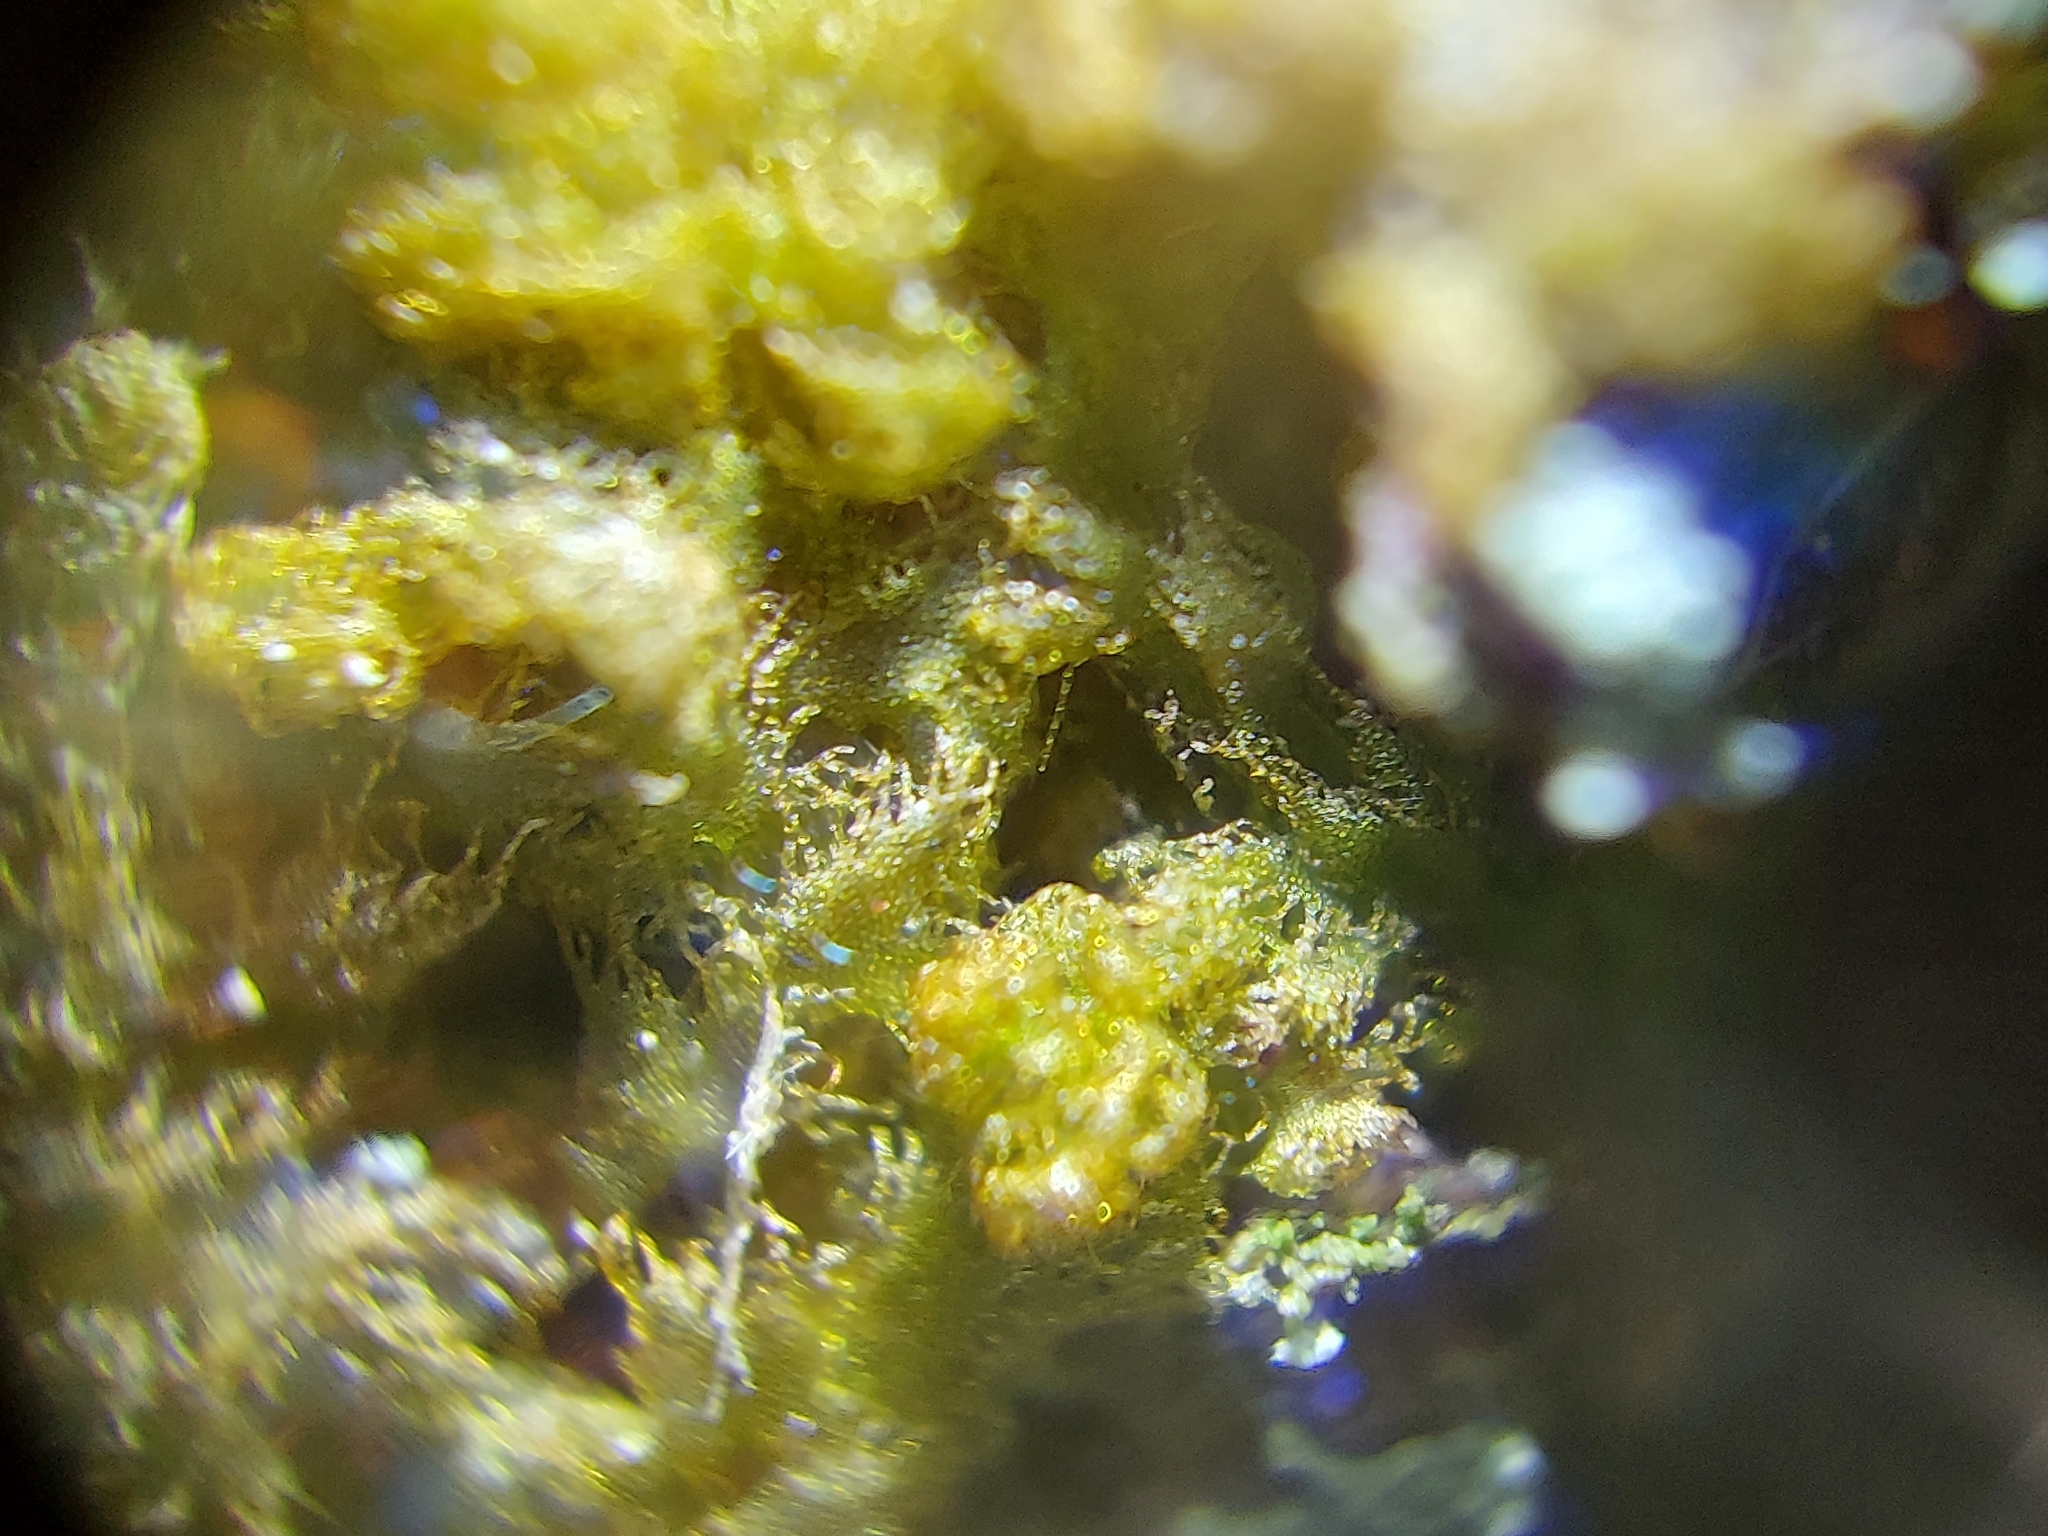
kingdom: Plantae
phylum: Marchantiophyta
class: Jungermanniopsida
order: Ptilidiales
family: Ptilidiaceae
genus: Ptilidium
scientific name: Ptilidium pulcherrimum
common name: Tree fringewort
